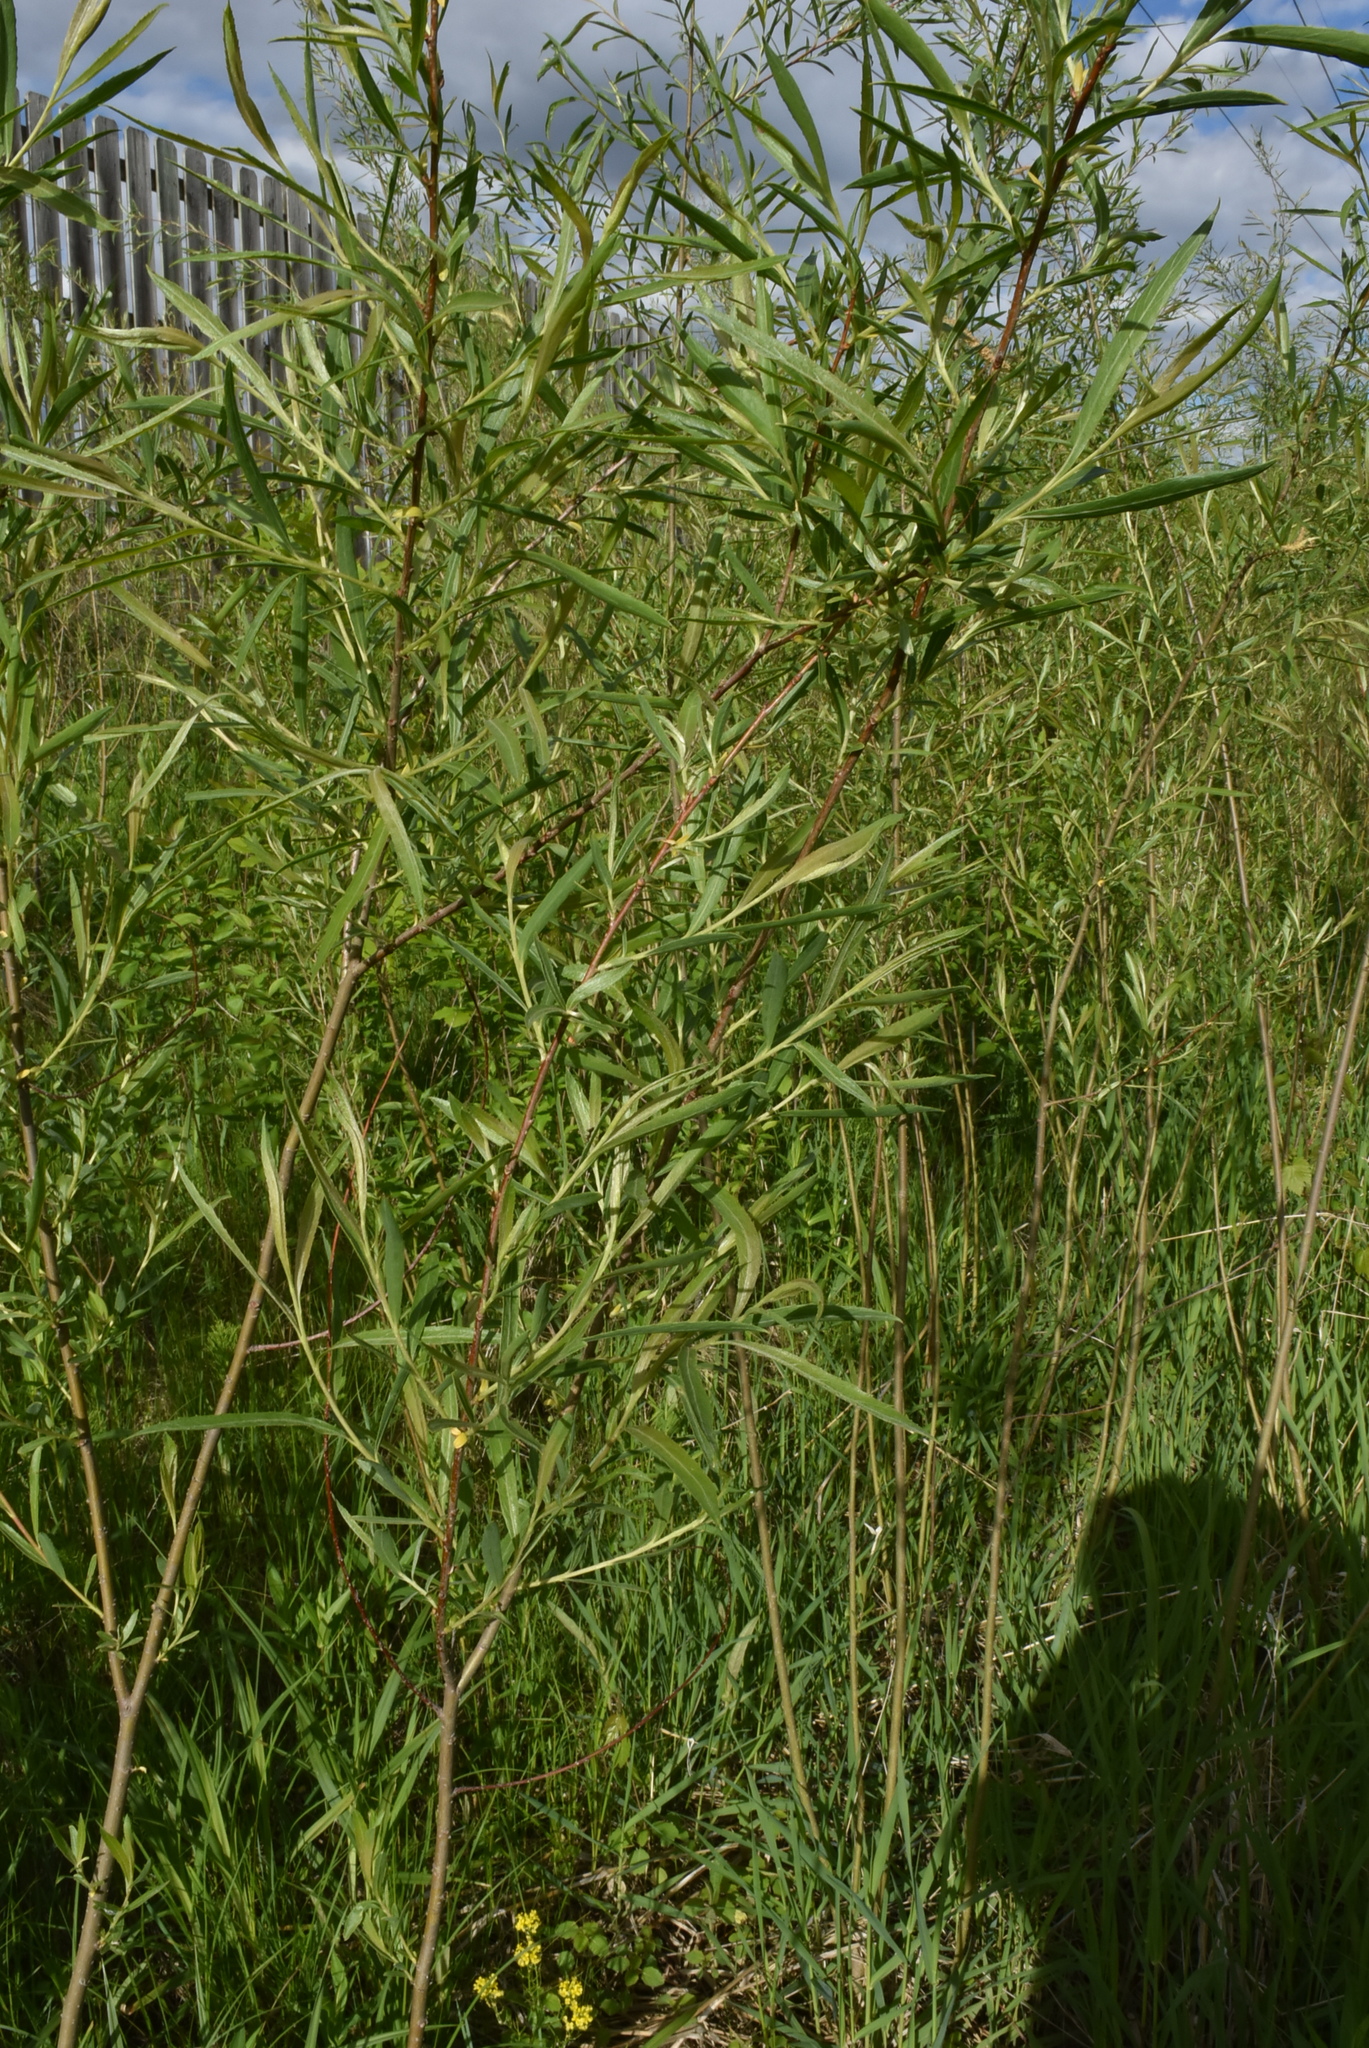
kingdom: Plantae
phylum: Tracheophyta
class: Magnoliopsida
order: Malpighiales
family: Salicaceae
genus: Salix
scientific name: Salix interior
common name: Sandbar willow
